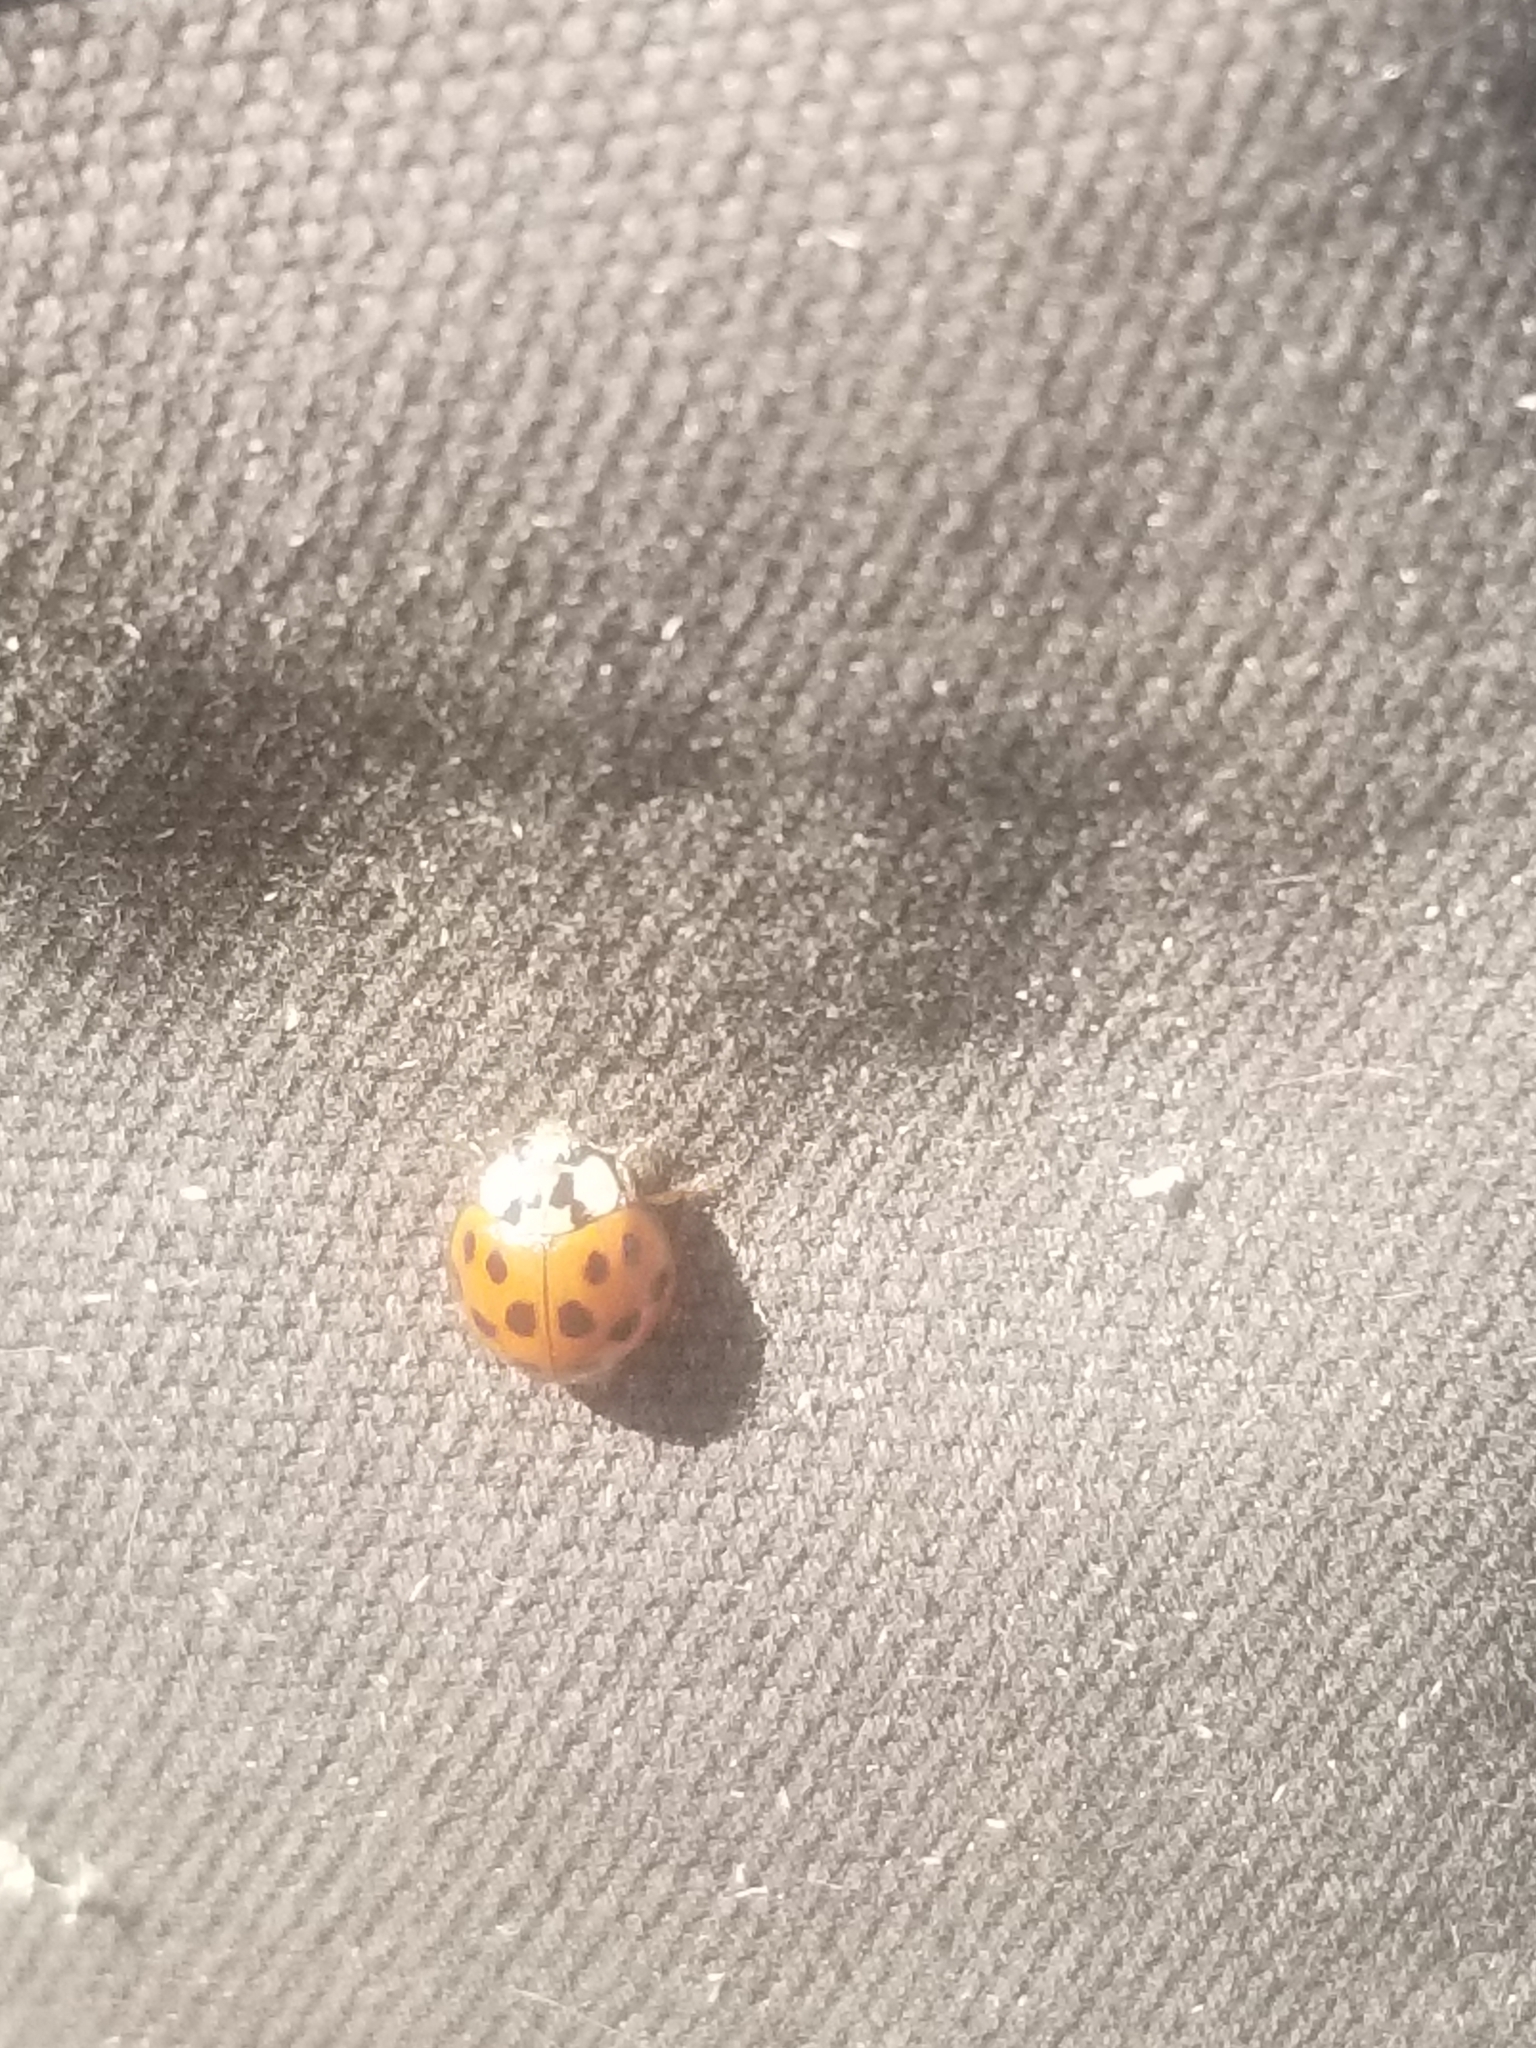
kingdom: Animalia
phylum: Arthropoda
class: Insecta
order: Coleoptera
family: Coccinellidae
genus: Harmonia
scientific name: Harmonia axyridis
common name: Harlequin ladybird
